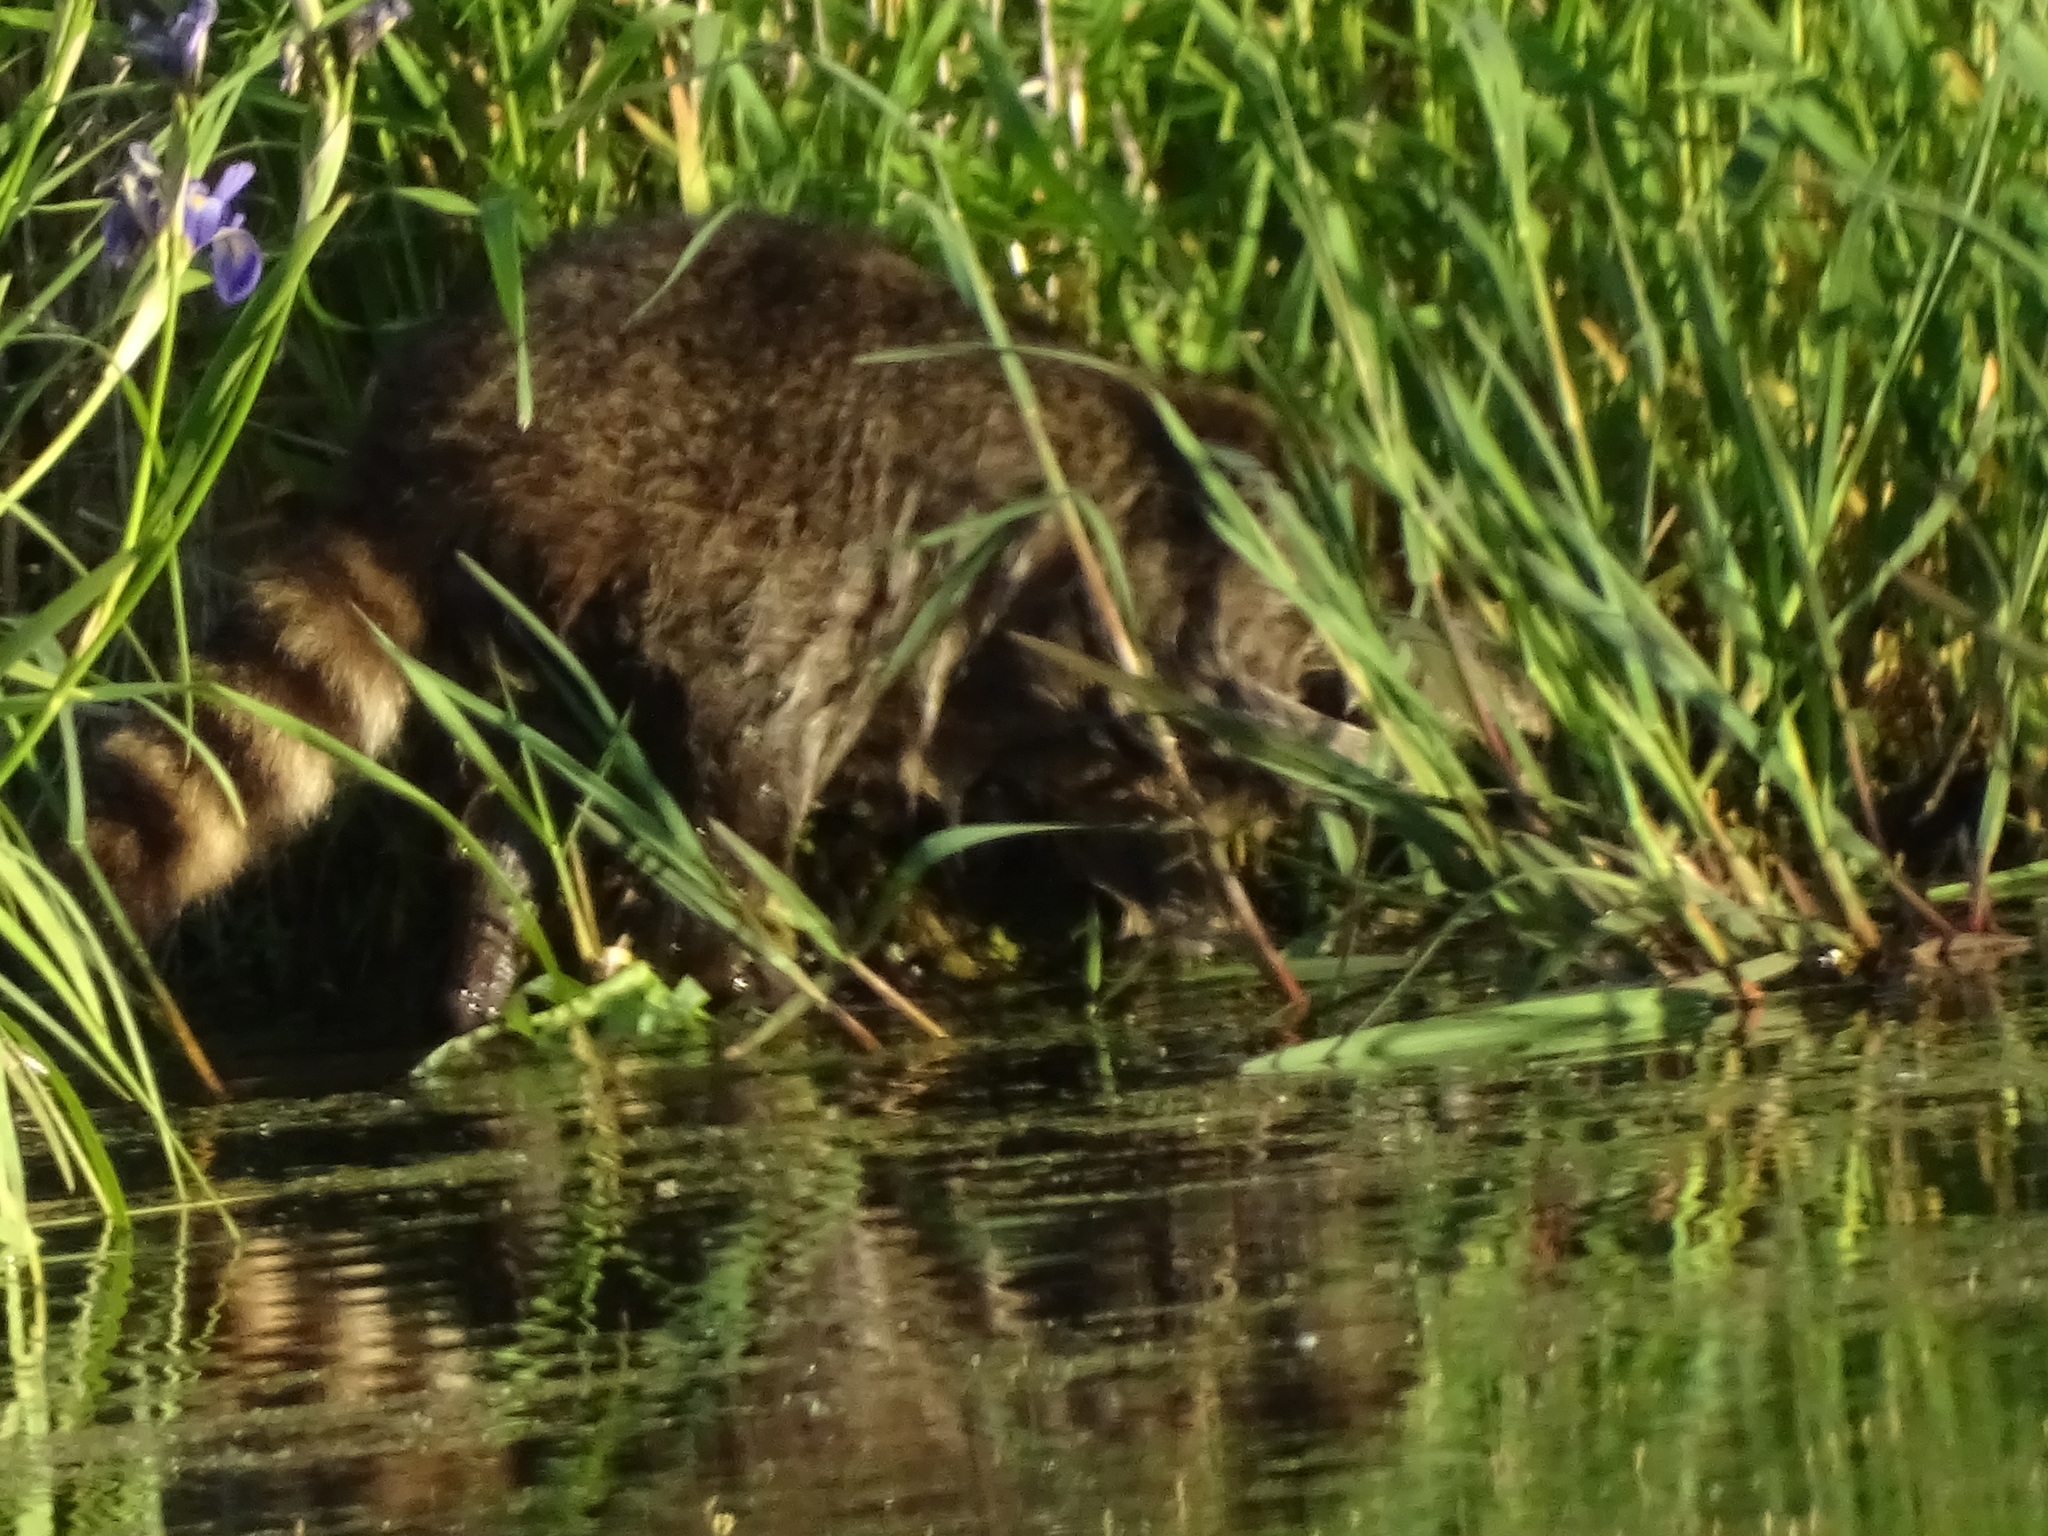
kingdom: Animalia
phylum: Chordata
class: Mammalia
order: Carnivora
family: Procyonidae
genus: Procyon
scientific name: Procyon lotor
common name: Raccoon
